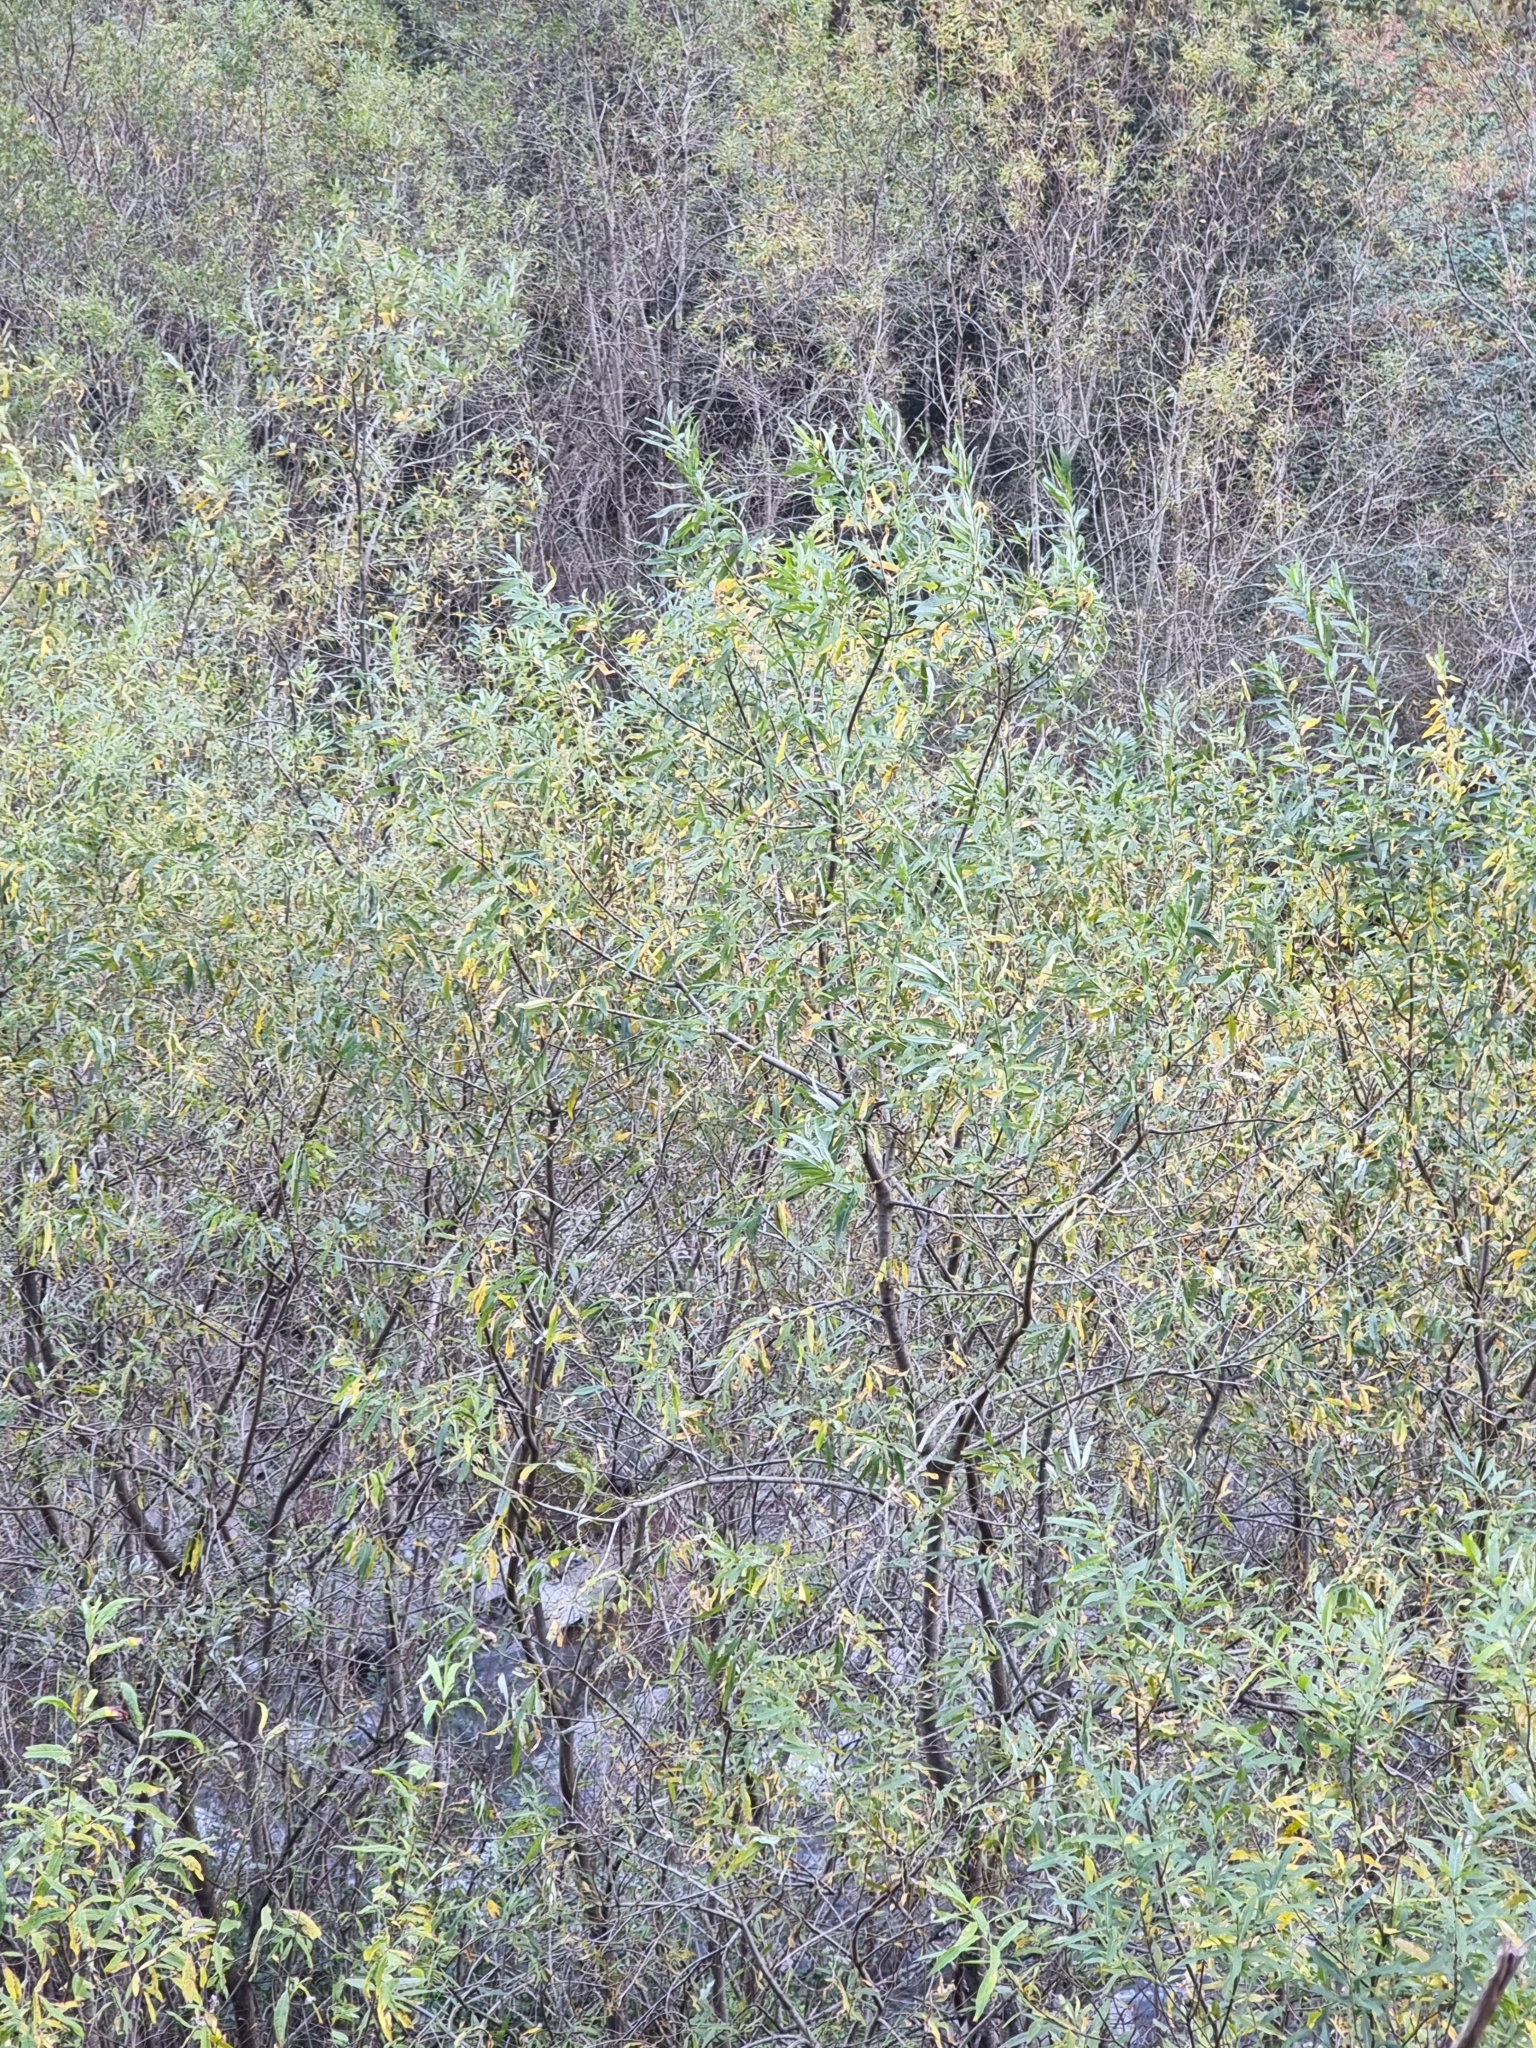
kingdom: Plantae
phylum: Tracheophyta
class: Magnoliopsida
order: Malpighiales
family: Salicaceae
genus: Salix
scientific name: Salix canariensis
